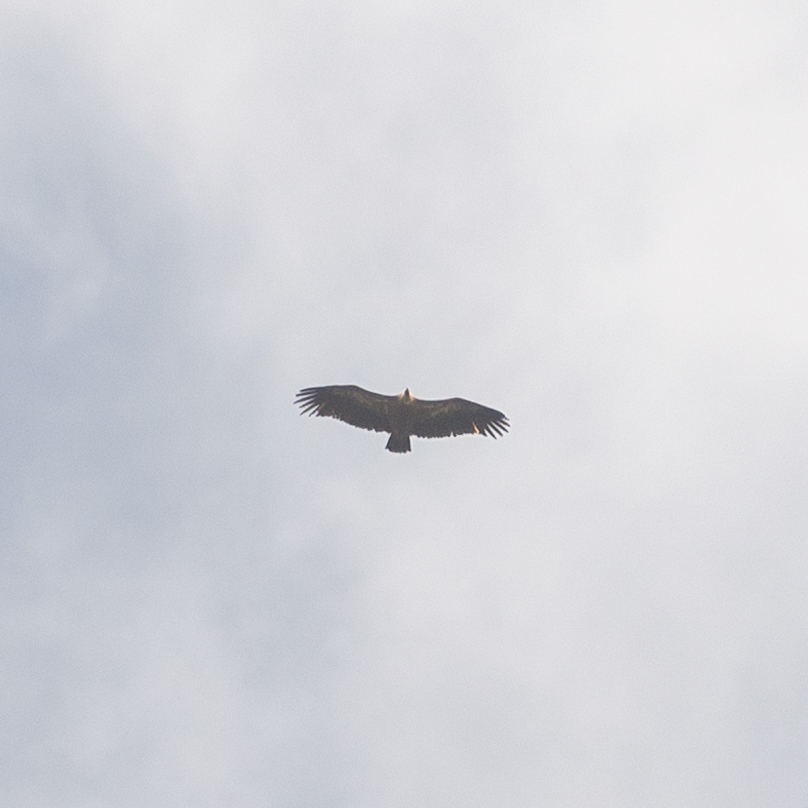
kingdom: Animalia
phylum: Chordata
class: Aves
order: Accipitriformes
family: Accipitridae
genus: Gyps
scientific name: Gyps fulvus
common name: Griffon vulture
